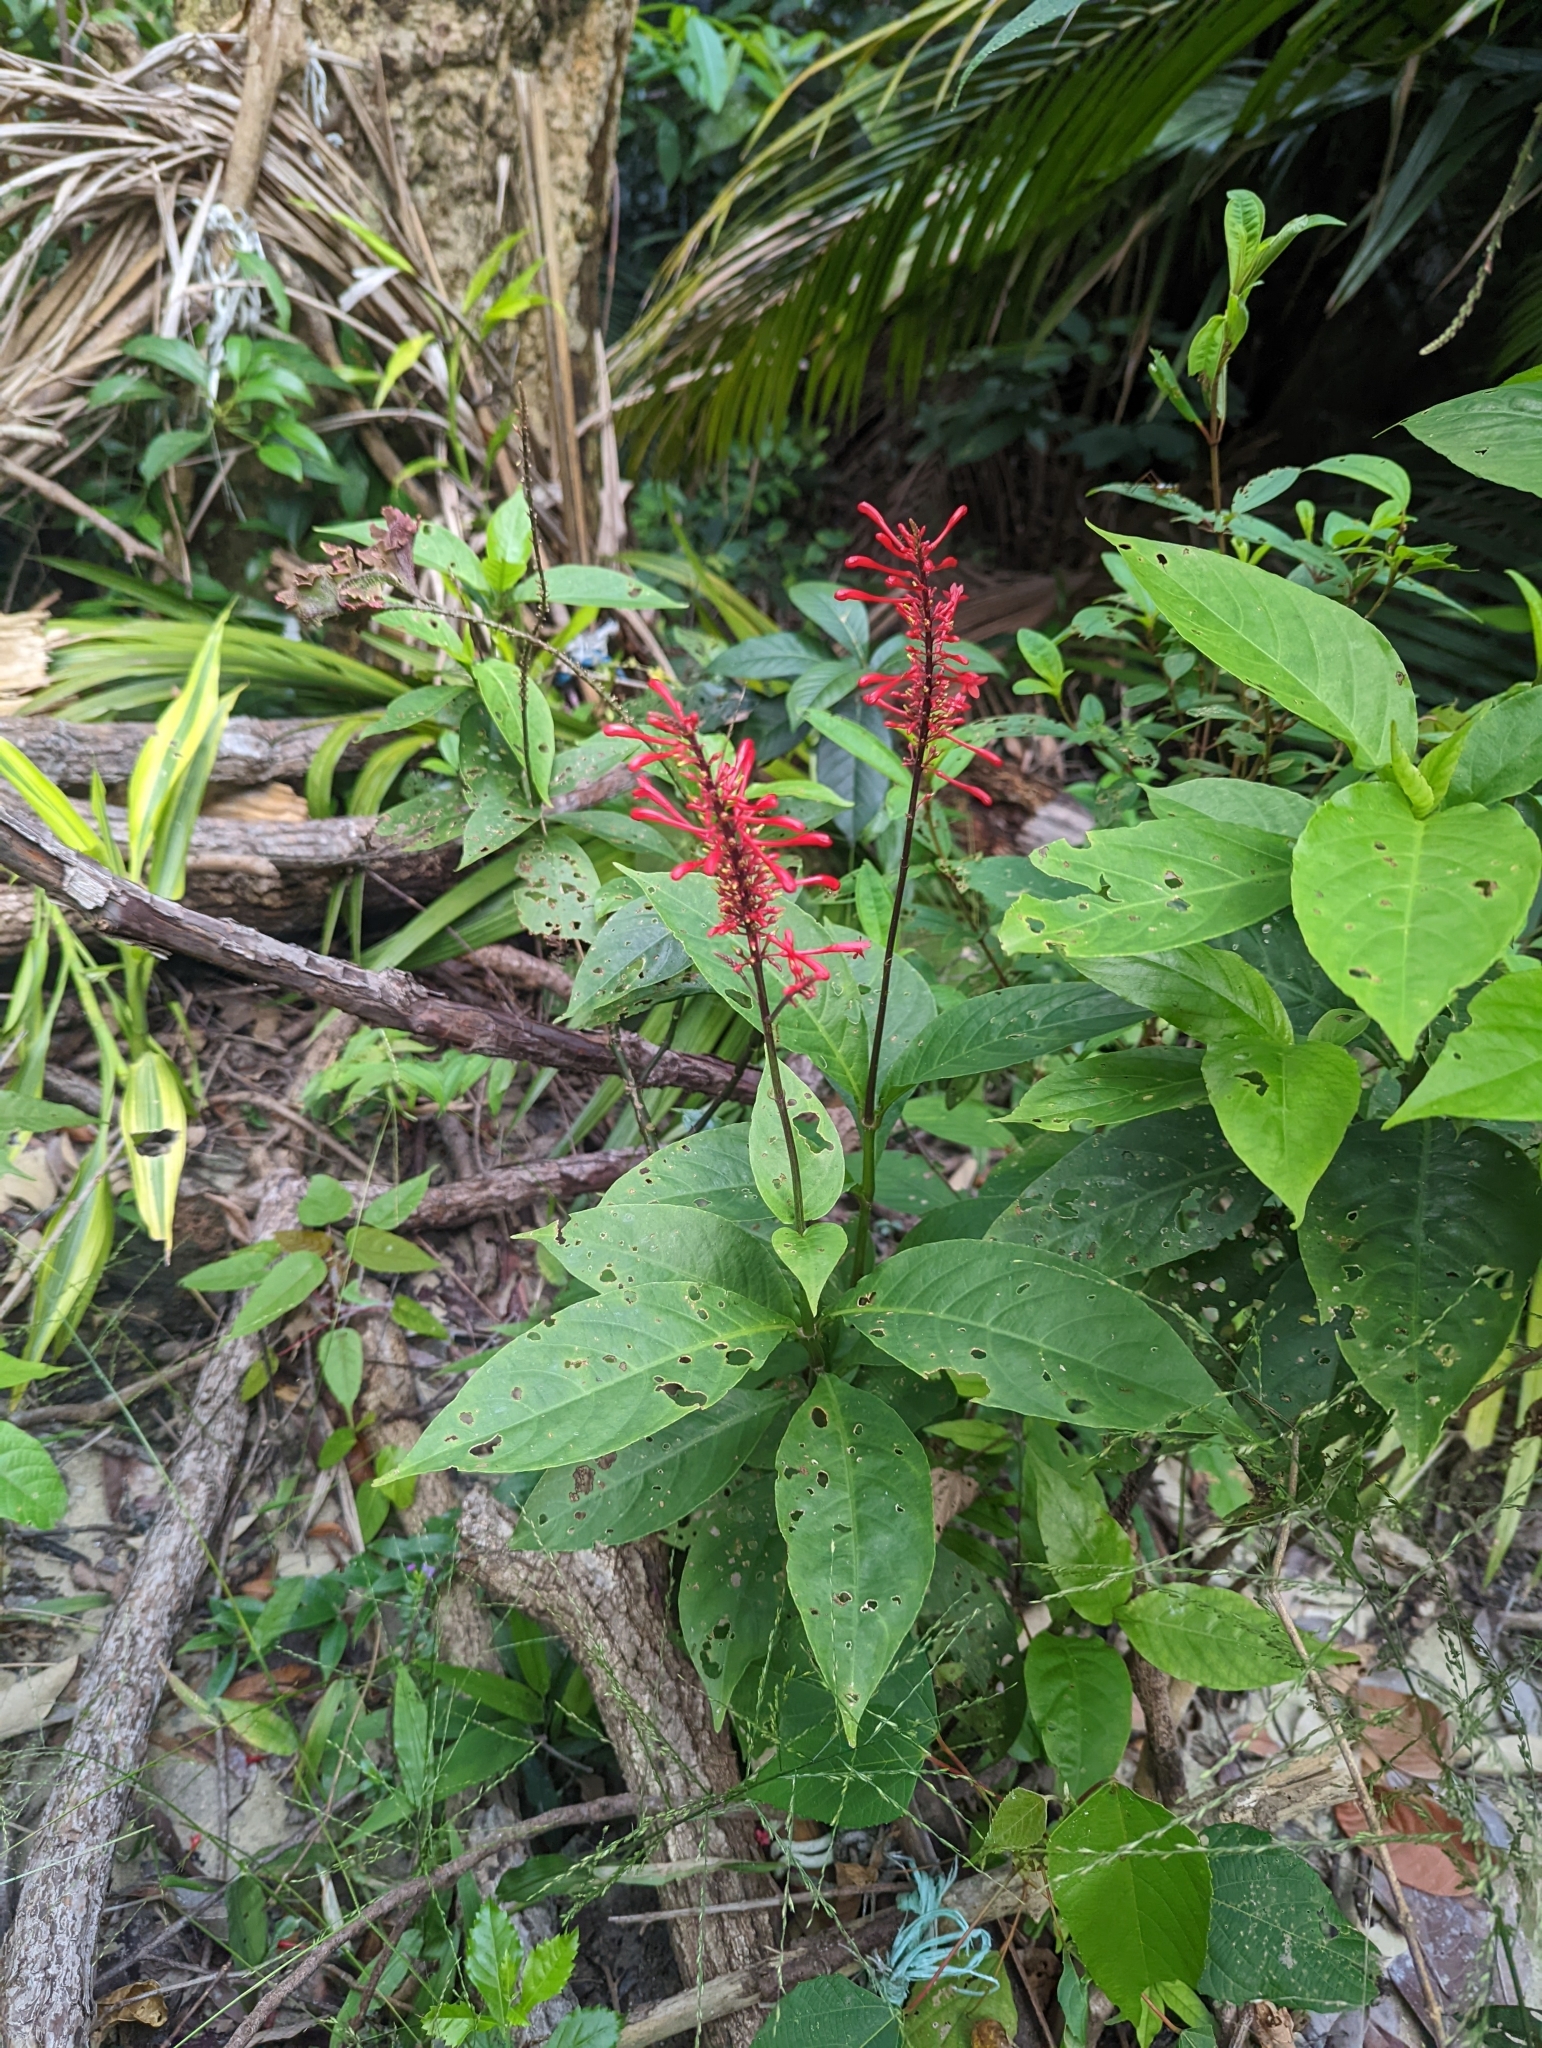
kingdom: Plantae
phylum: Tracheophyta
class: Magnoliopsida
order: Lamiales
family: Acanthaceae
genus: Odontonema
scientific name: Odontonema tubaeforme
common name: Firespike
